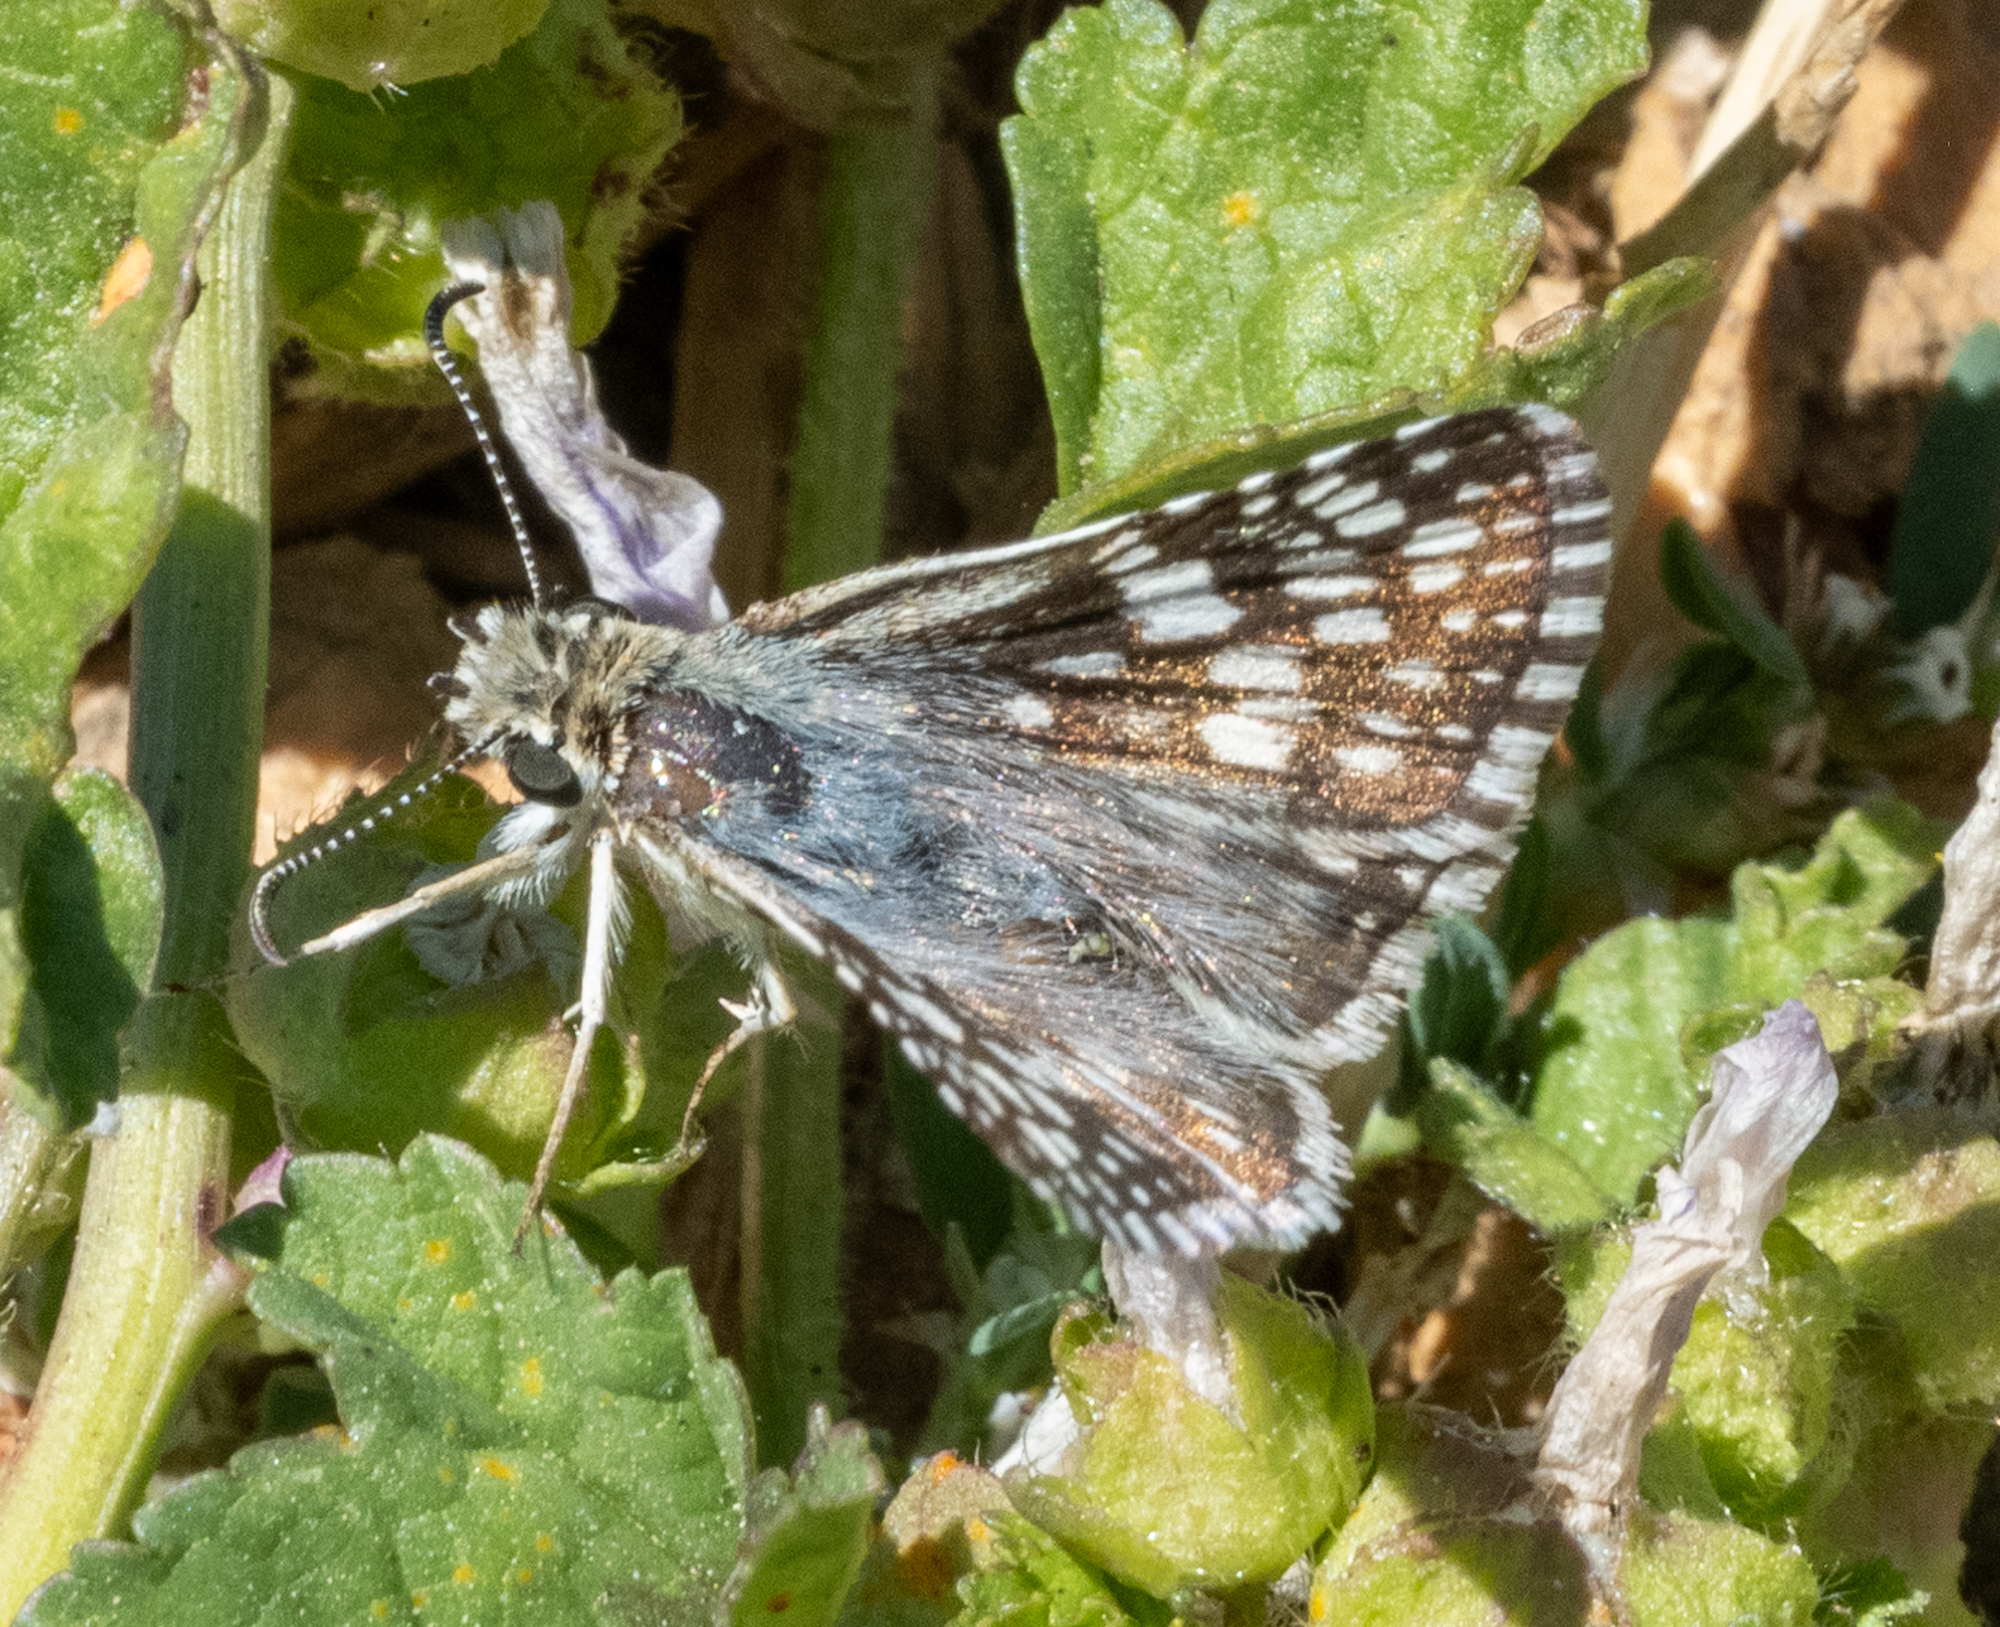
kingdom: Animalia
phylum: Arthropoda
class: Insecta
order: Lepidoptera
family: Hesperiidae
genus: Burnsius
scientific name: Burnsius communis
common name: Common checkered-skipper
